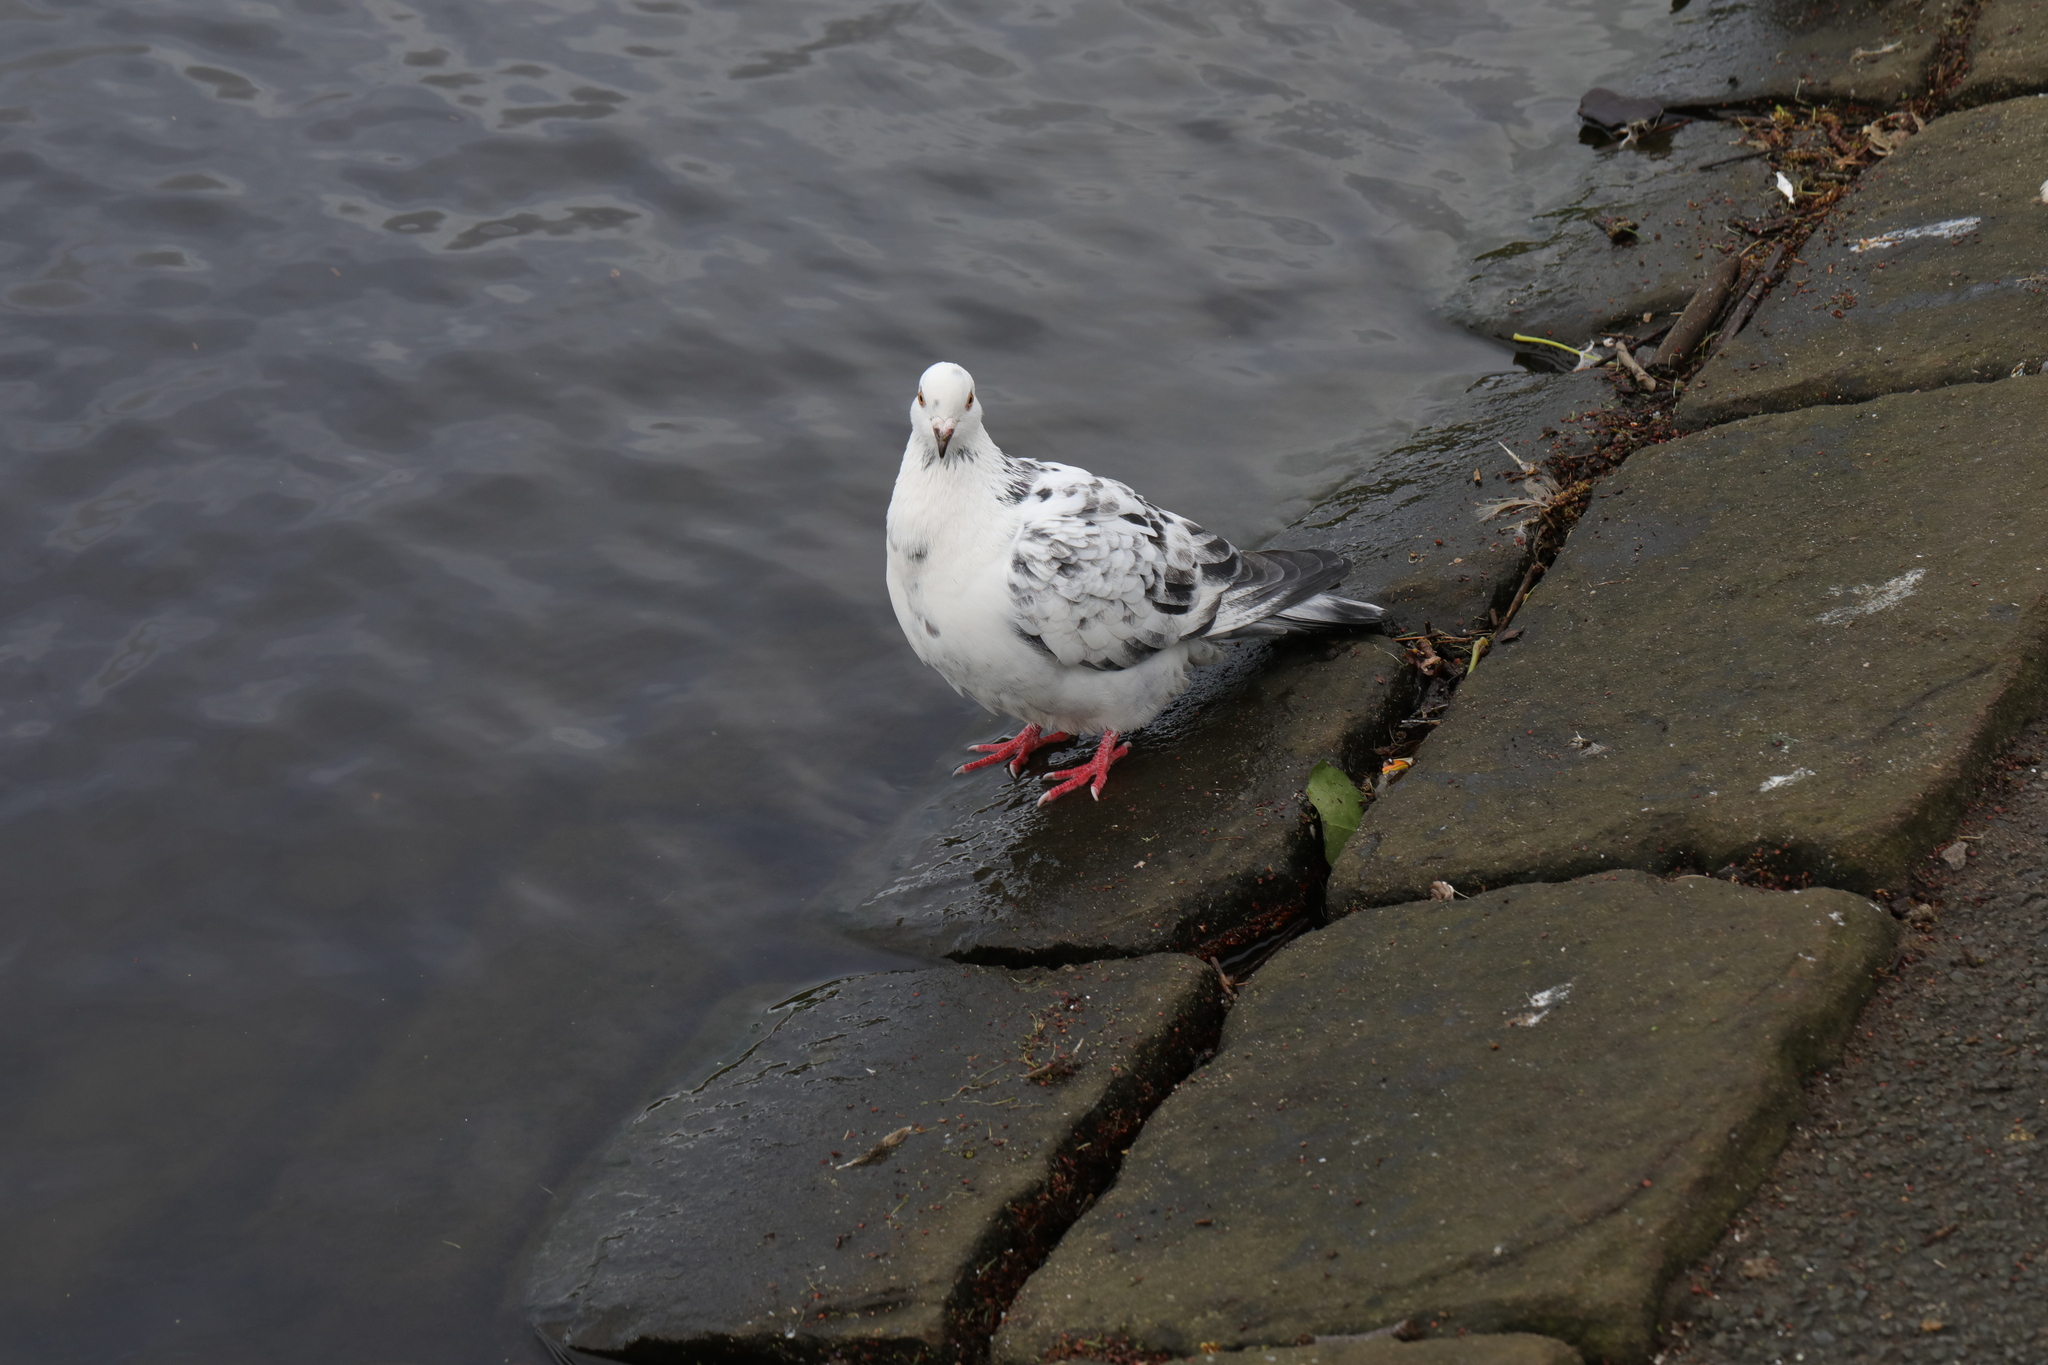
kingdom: Animalia
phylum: Chordata
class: Aves
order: Columbiformes
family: Columbidae
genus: Columba
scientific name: Columba livia
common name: Rock pigeon
